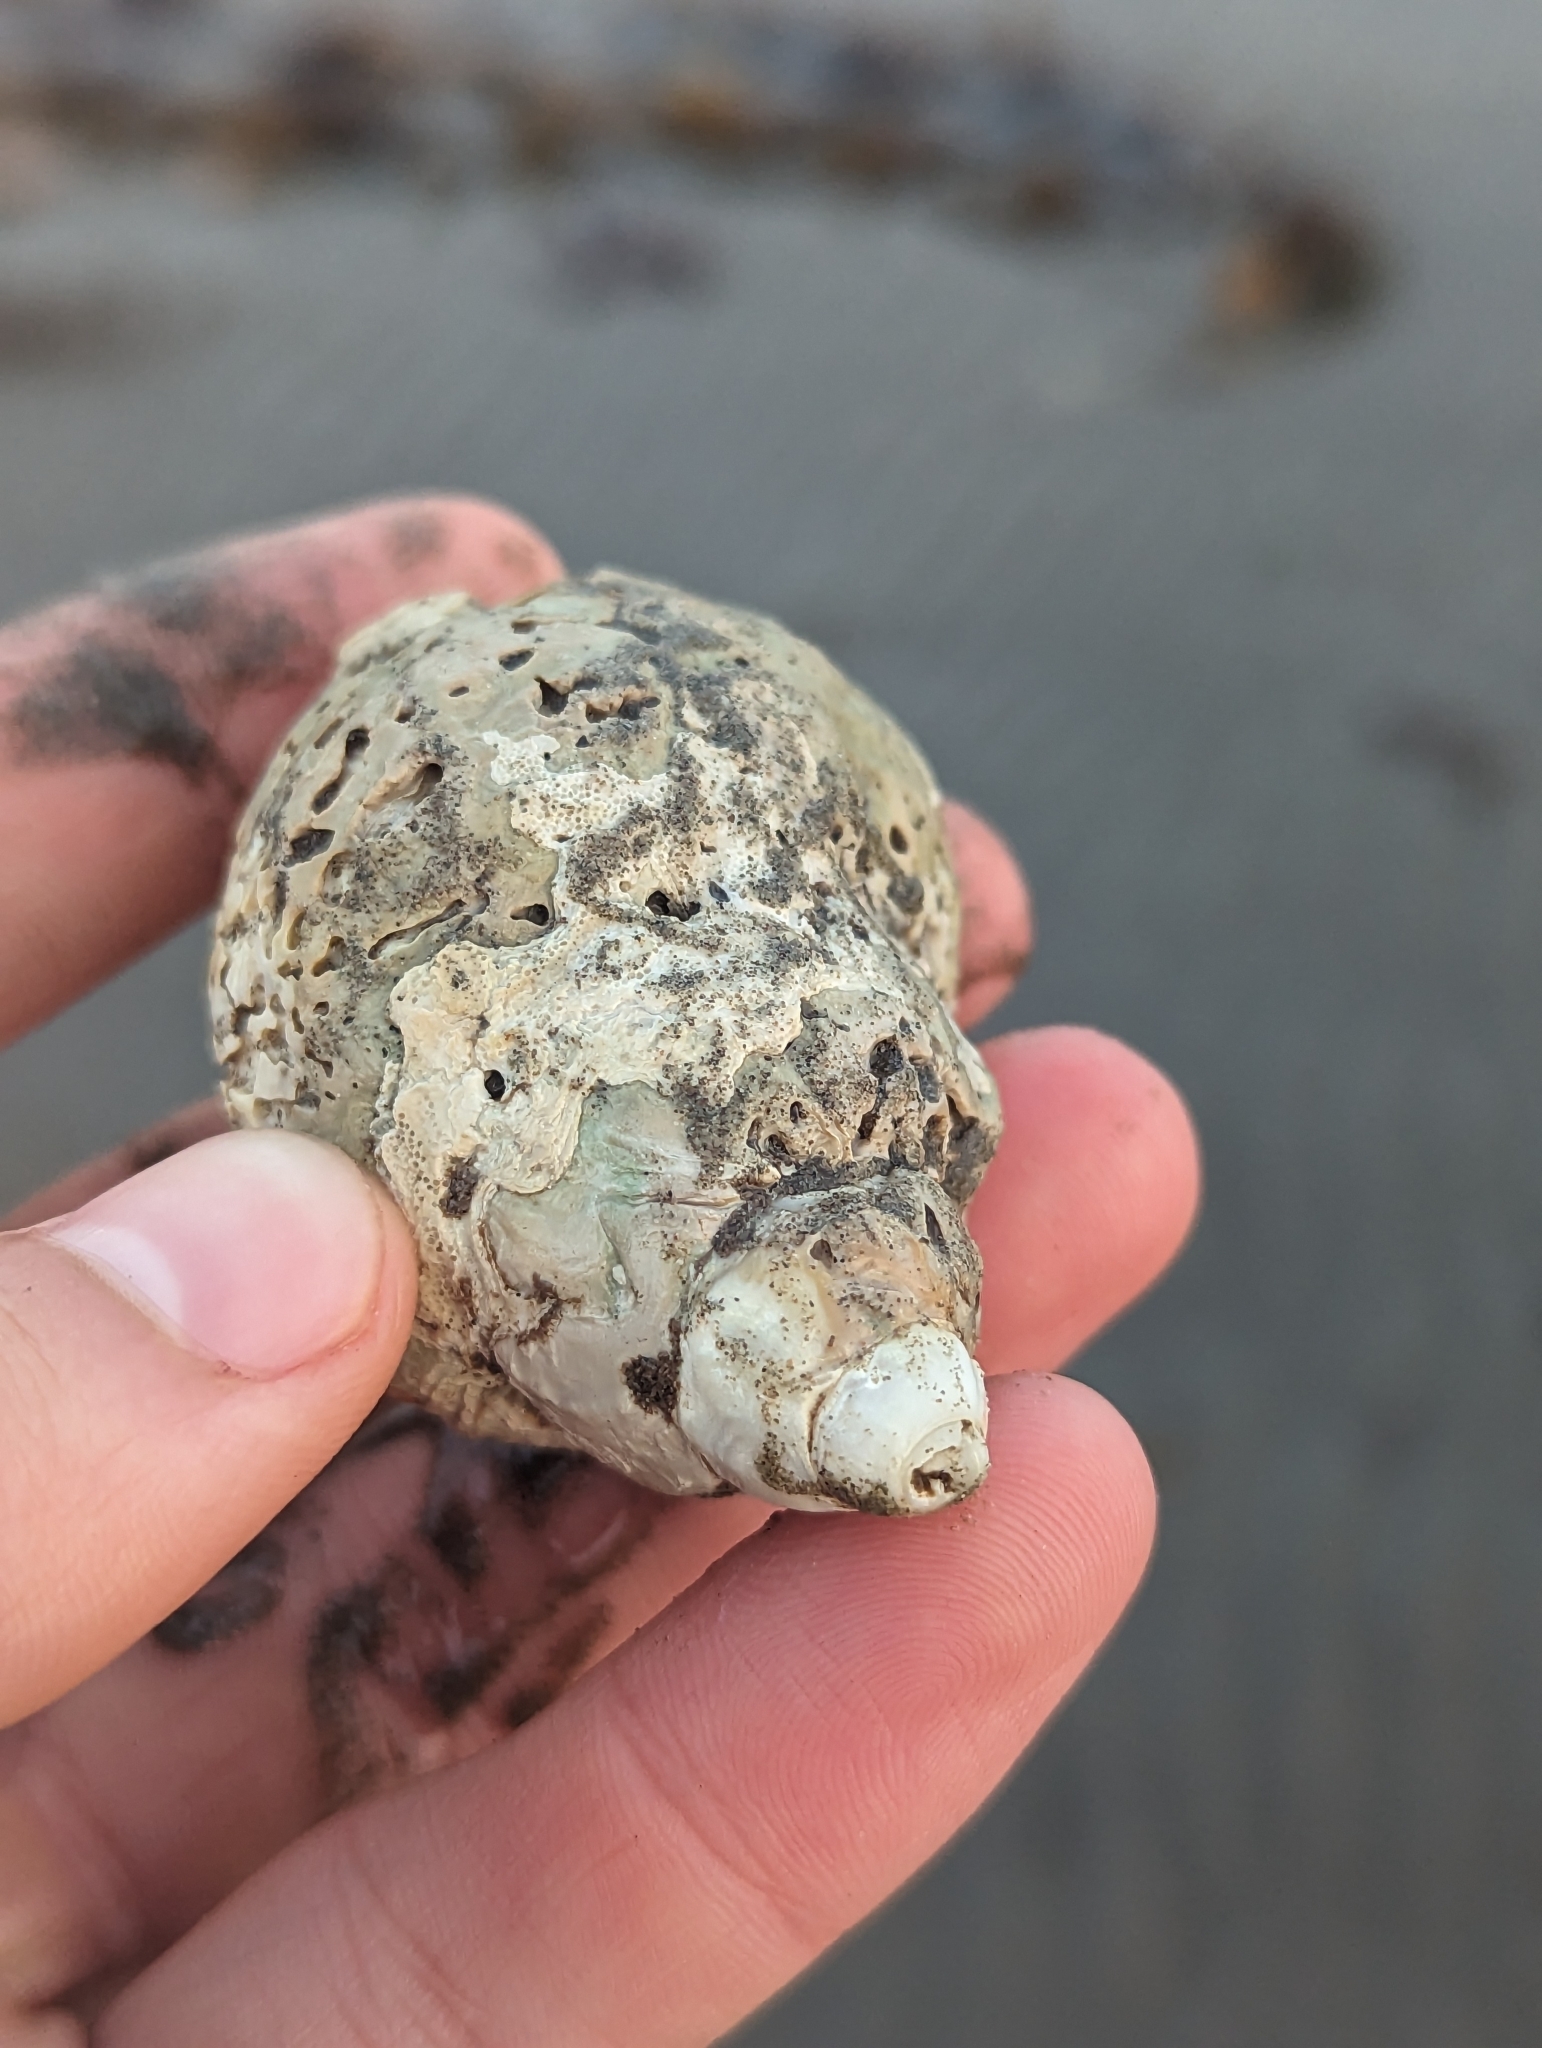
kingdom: Animalia
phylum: Mollusca
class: Gastropoda
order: Neogastropoda
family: Buccinidae
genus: Buccinum
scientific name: Buccinum undatum
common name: Common whelk
